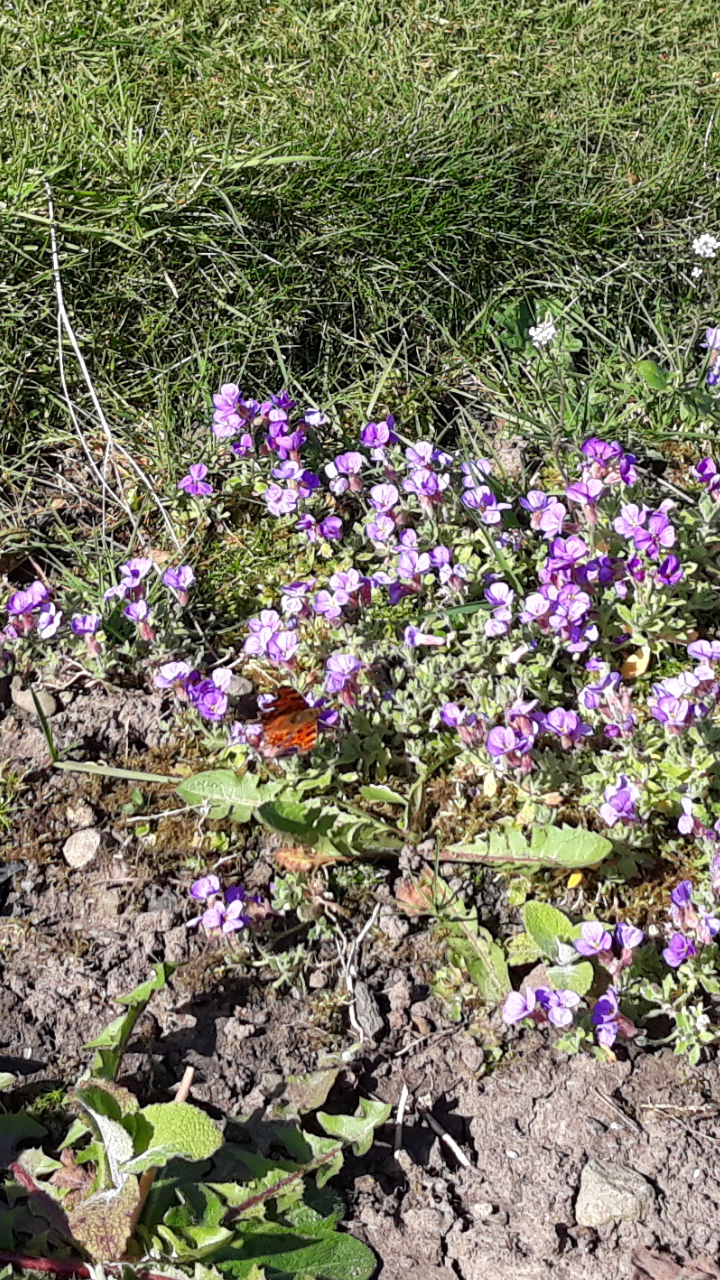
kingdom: Animalia
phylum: Arthropoda
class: Insecta
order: Lepidoptera
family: Nymphalidae
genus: Polygonia
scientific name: Polygonia c-album
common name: Comma
